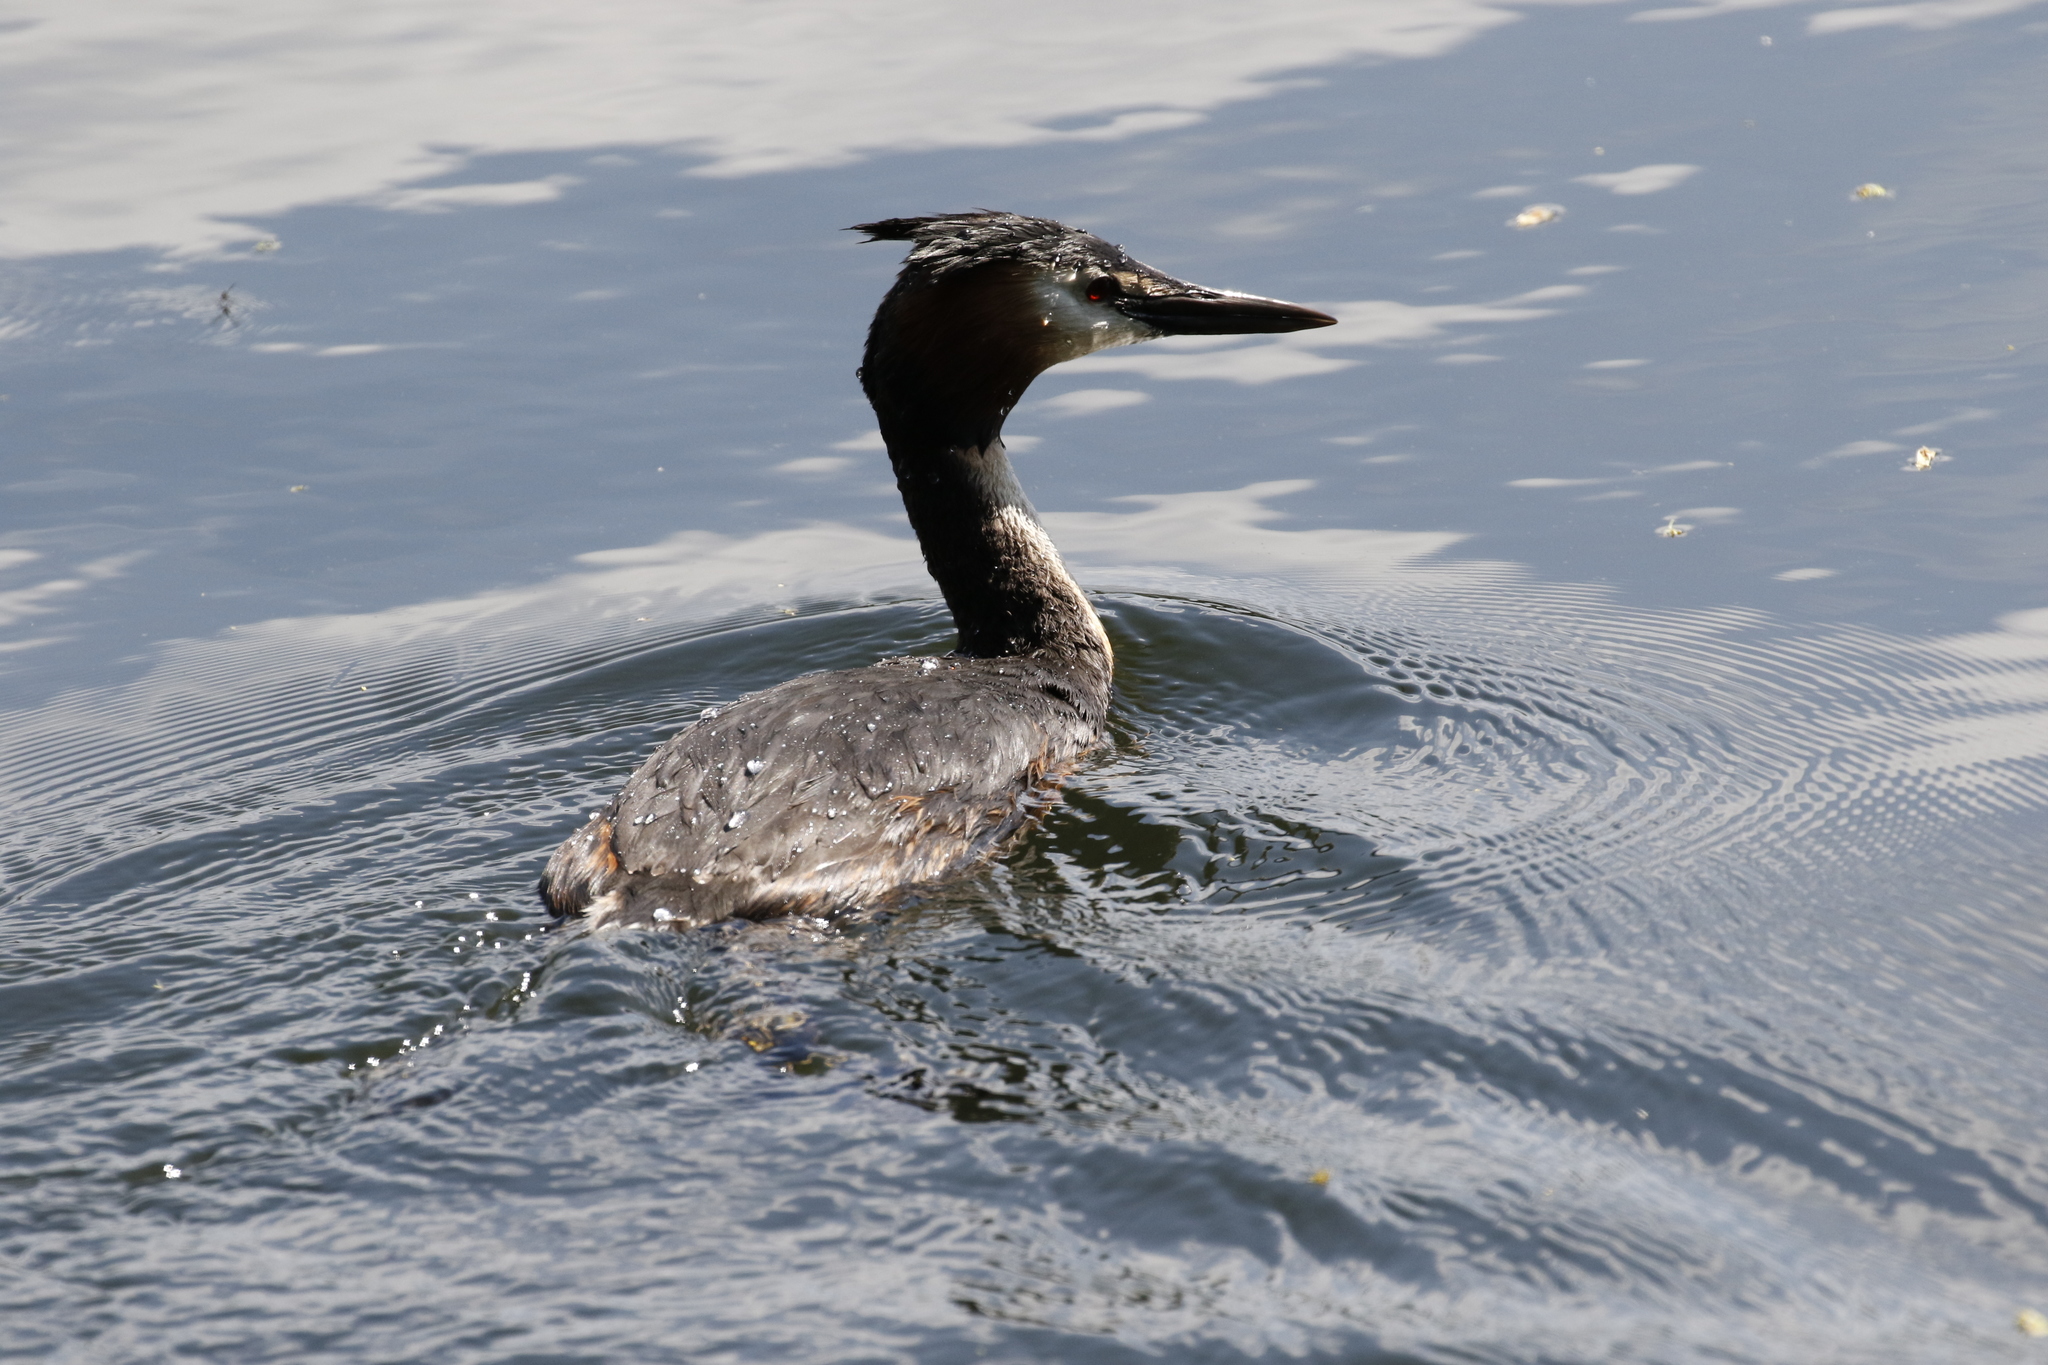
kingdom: Animalia
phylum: Chordata
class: Aves
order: Podicipediformes
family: Podicipedidae
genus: Podiceps
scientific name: Podiceps cristatus
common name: Great crested grebe
